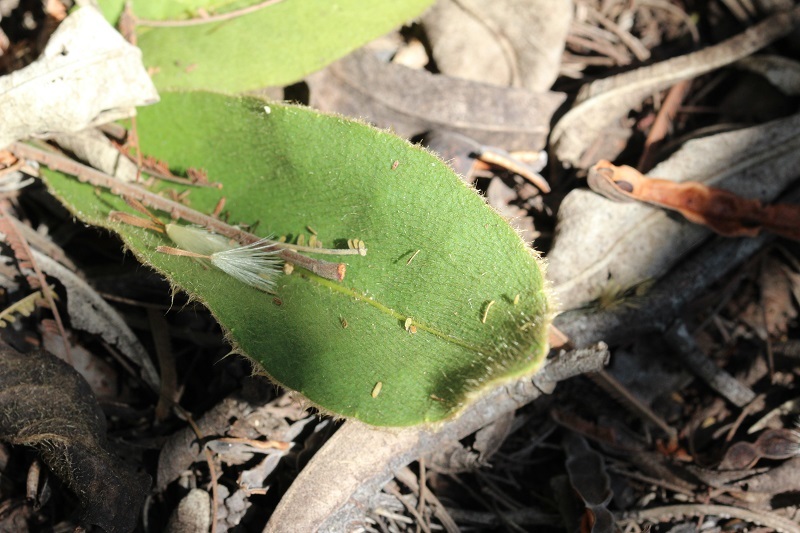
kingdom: Plantae
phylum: Tracheophyta
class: Magnoliopsida
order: Asterales
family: Asteraceae
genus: Piloselloides
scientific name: Piloselloides hirsuta
